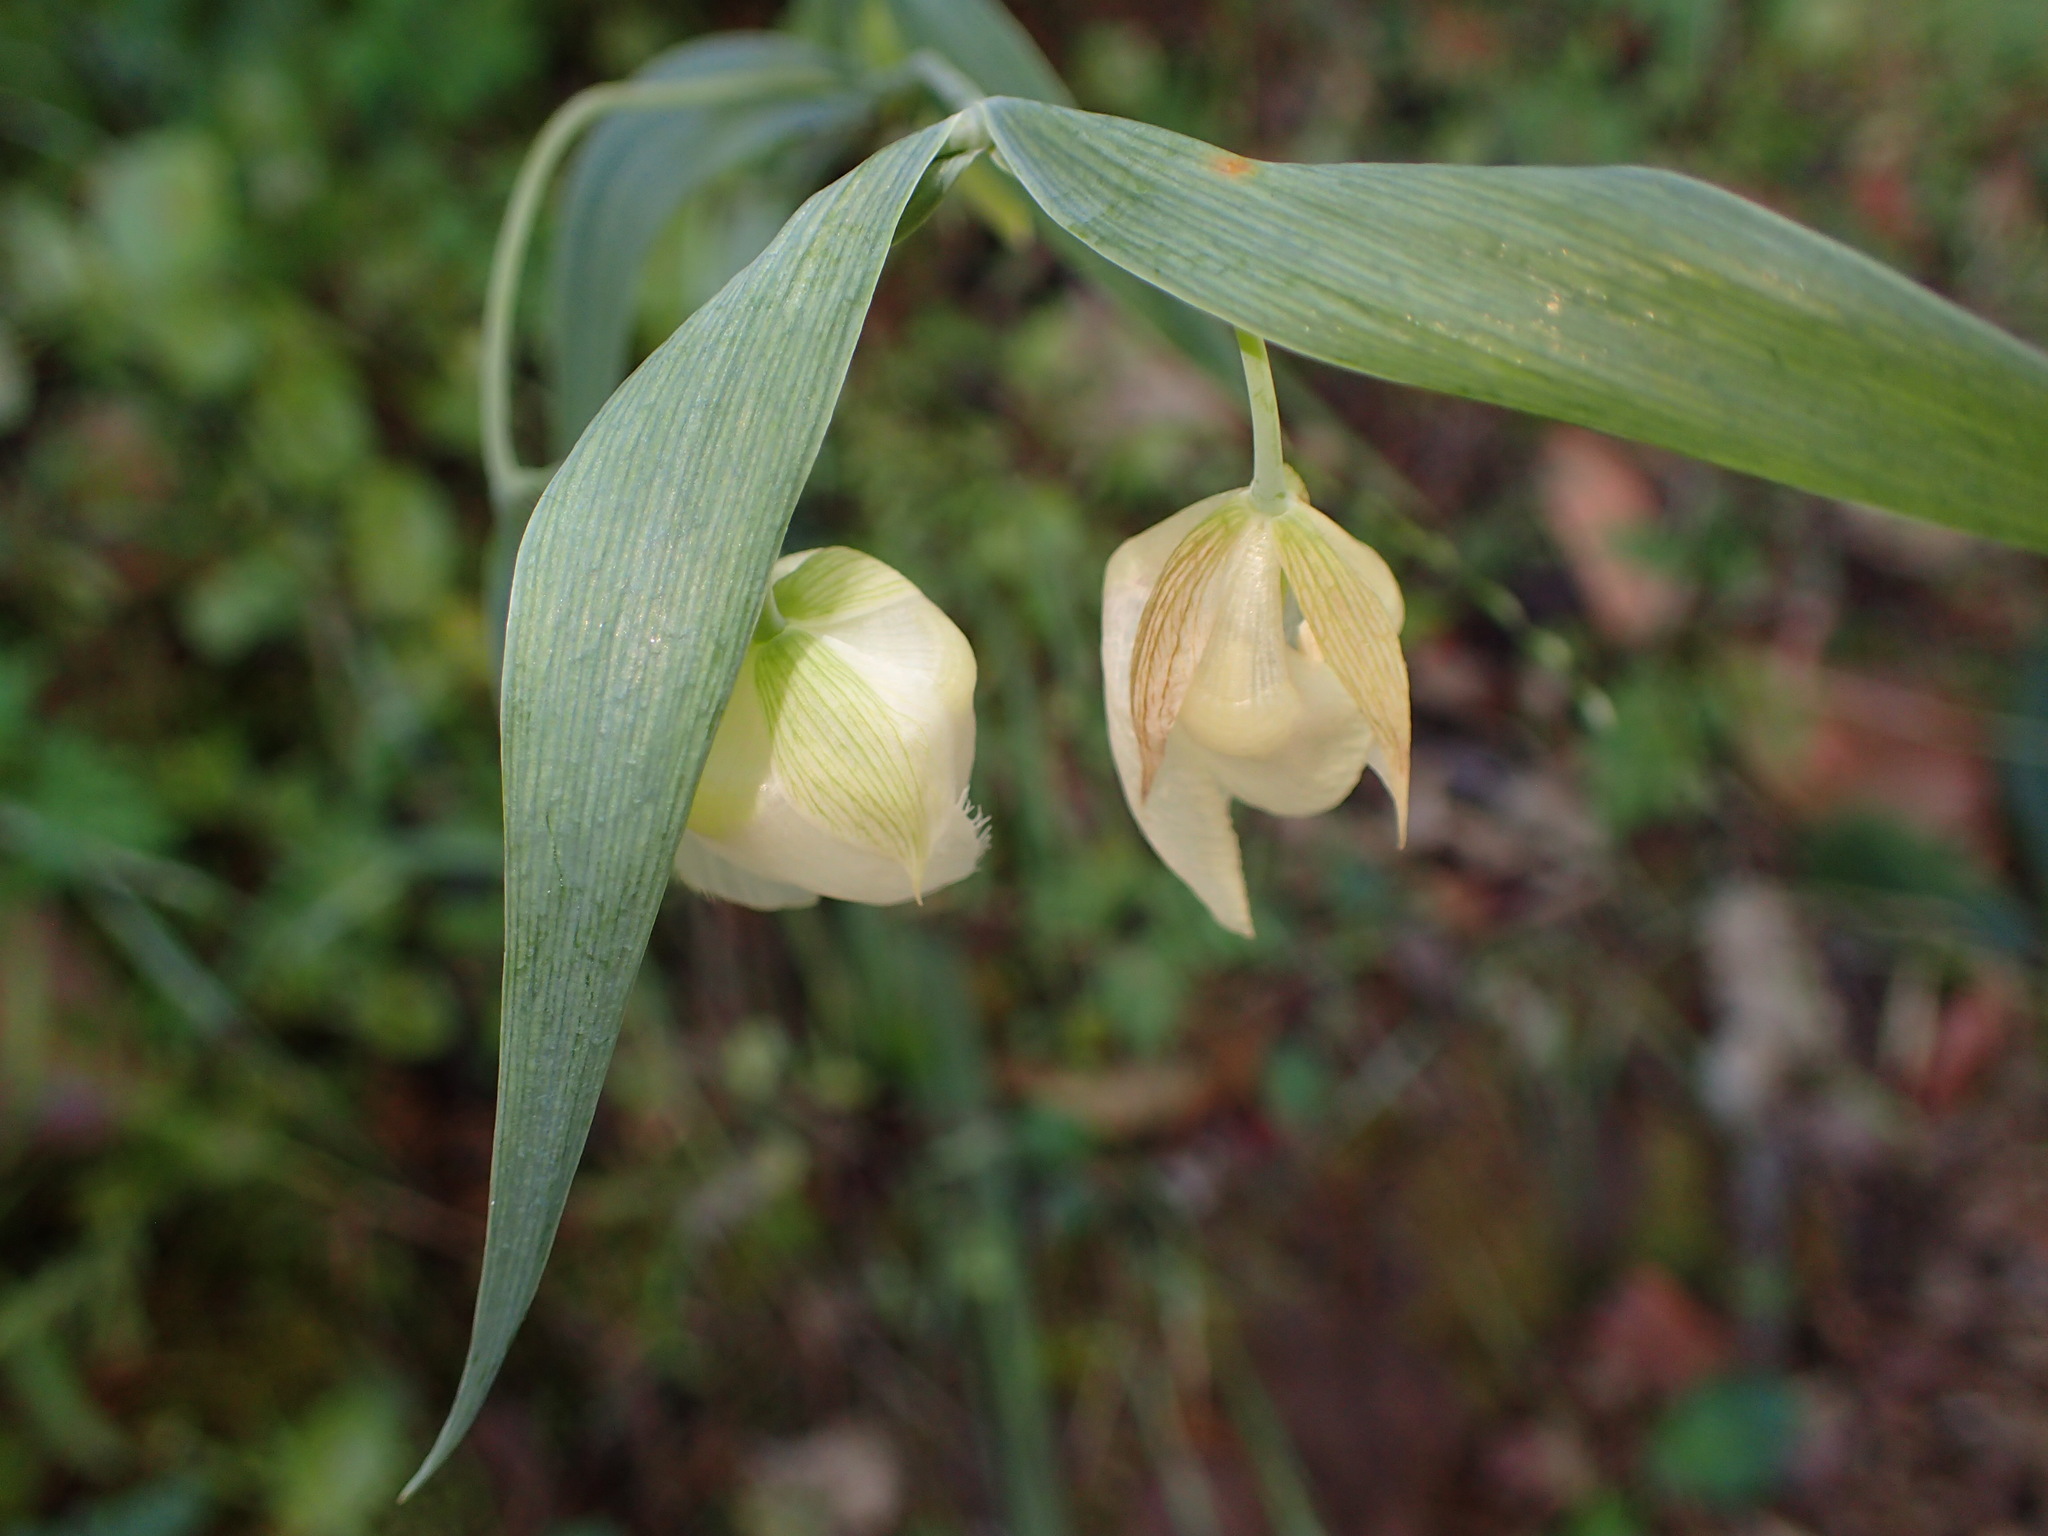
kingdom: Plantae
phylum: Tracheophyta
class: Liliopsida
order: Liliales
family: Liliaceae
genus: Calochortus
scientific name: Calochortus albus
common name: Fairy-lantern
